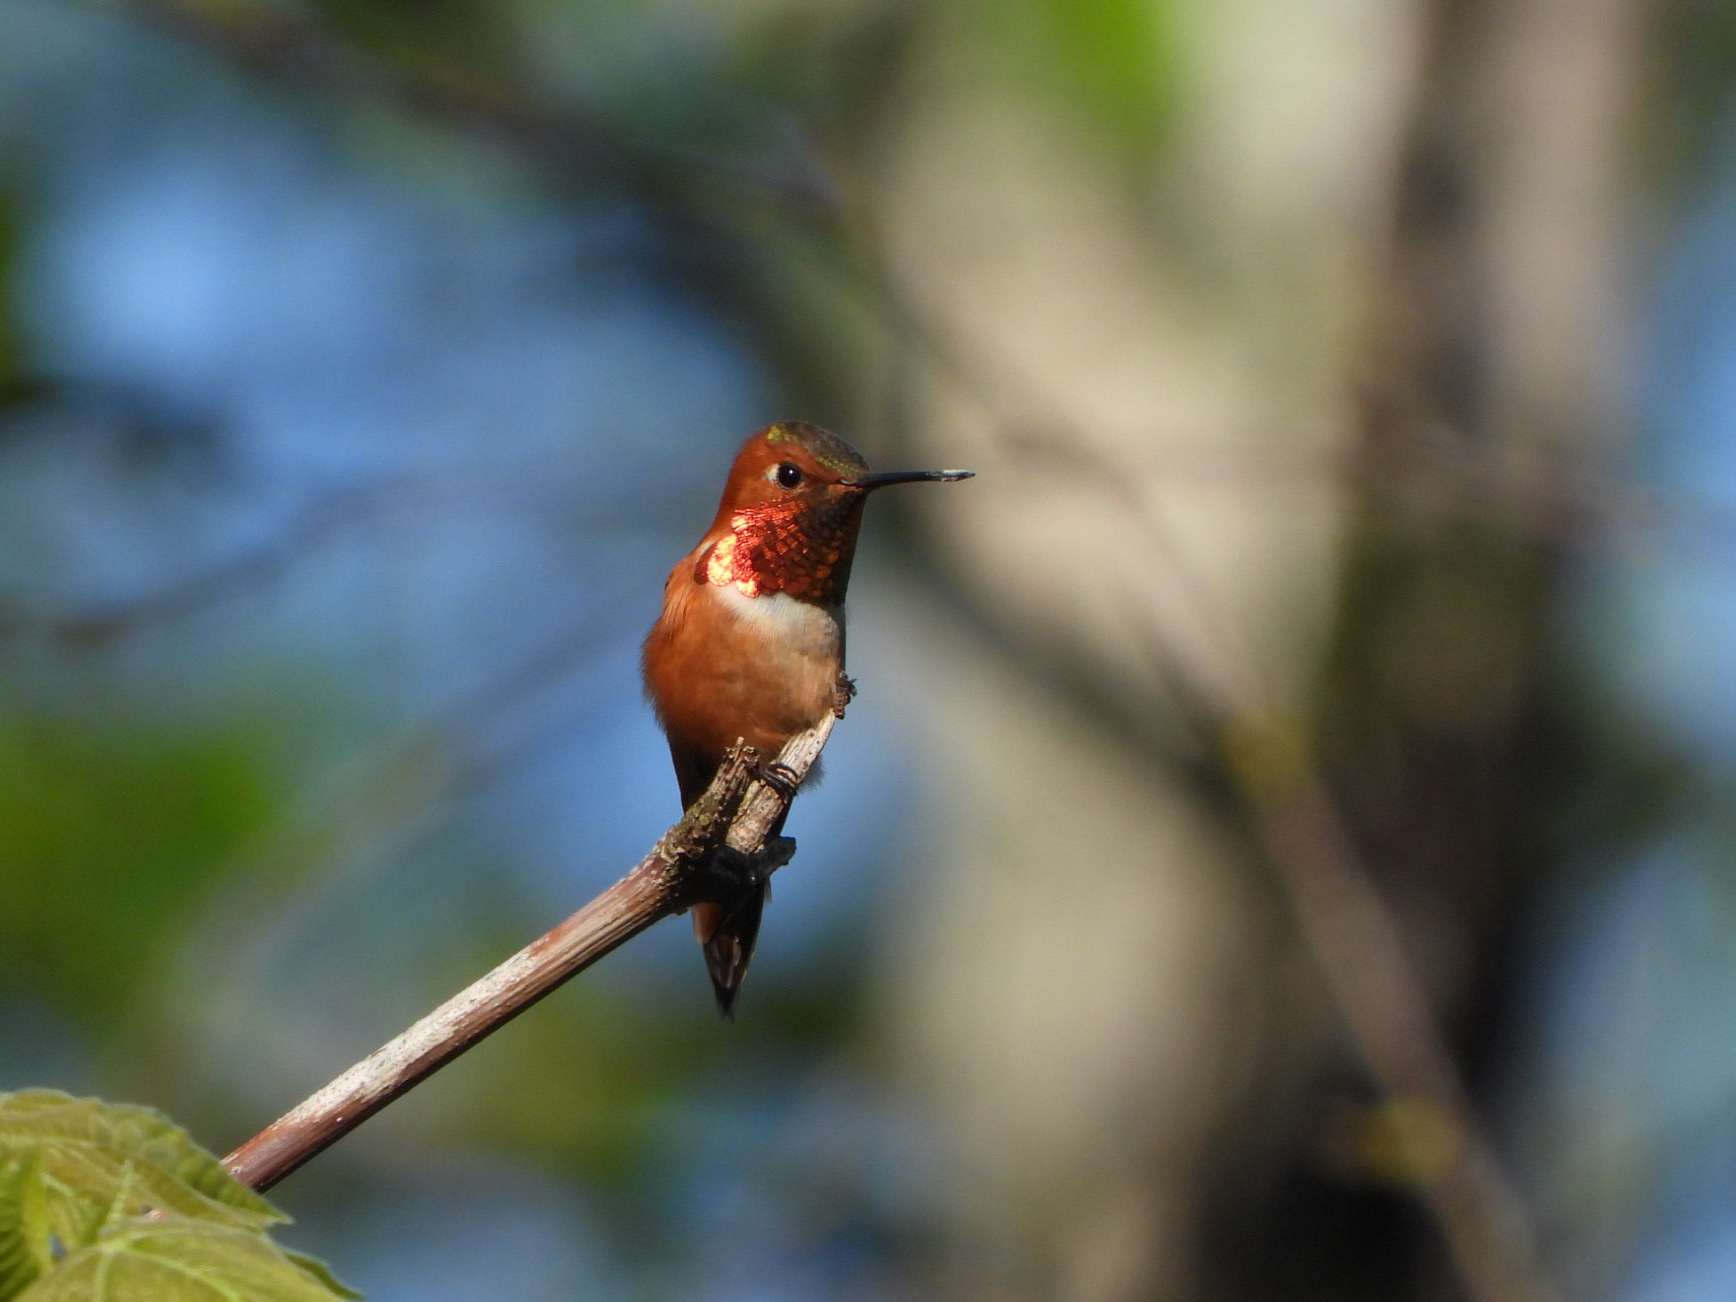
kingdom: Animalia
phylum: Chordata
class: Aves
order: Apodiformes
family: Trochilidae
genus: Selasphorus
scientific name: Selasphorus rufus
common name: Rufous hummingbird
